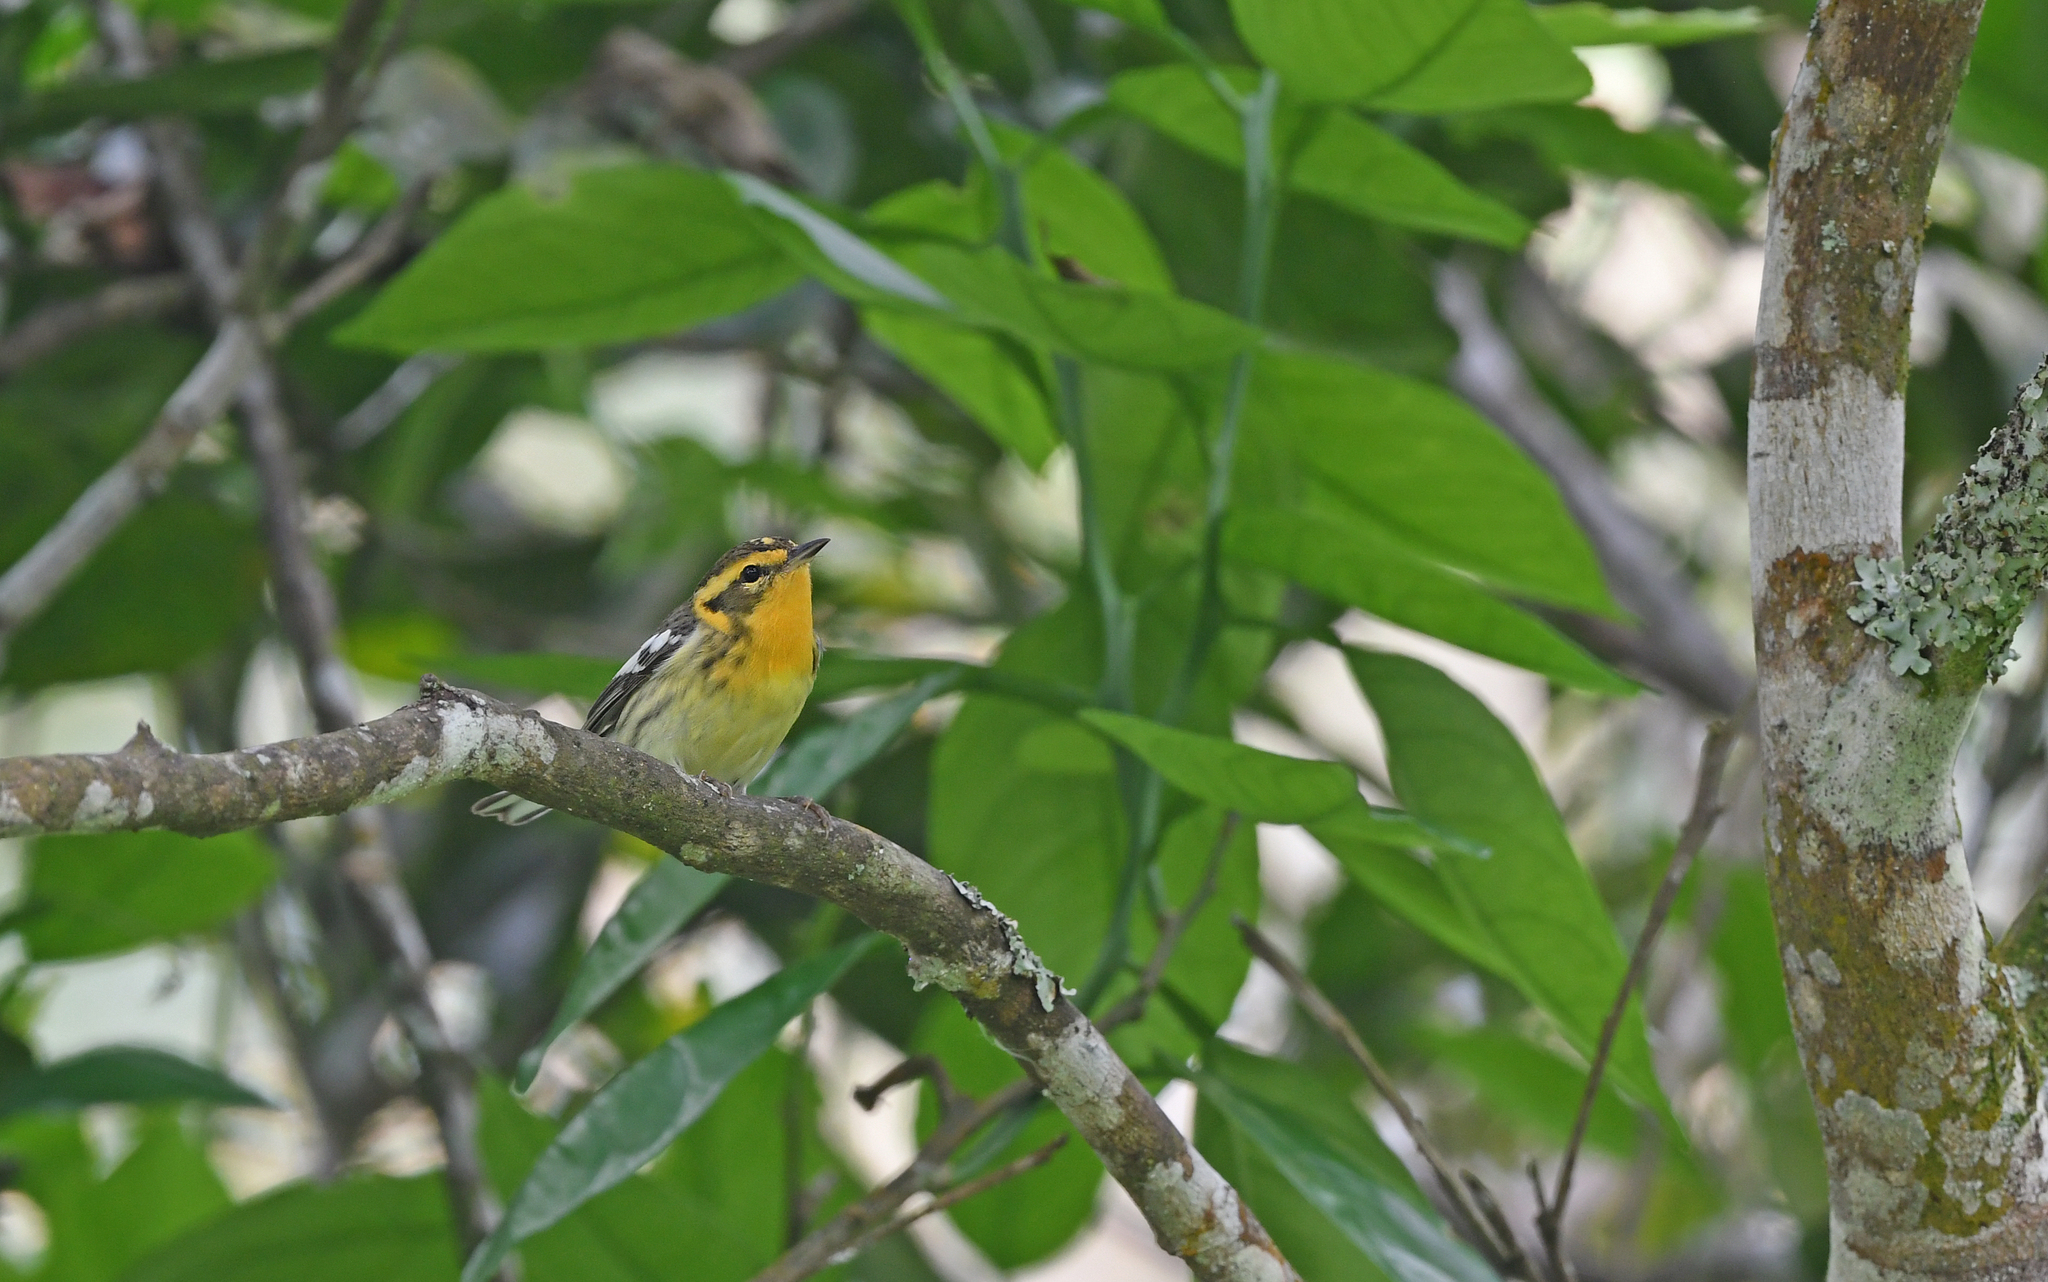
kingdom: Animalia
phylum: Chordata
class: Aves
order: Passeriformes
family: Parulidae
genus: Setophaga
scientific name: Setophaga fusca
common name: Blackburnian warbler
